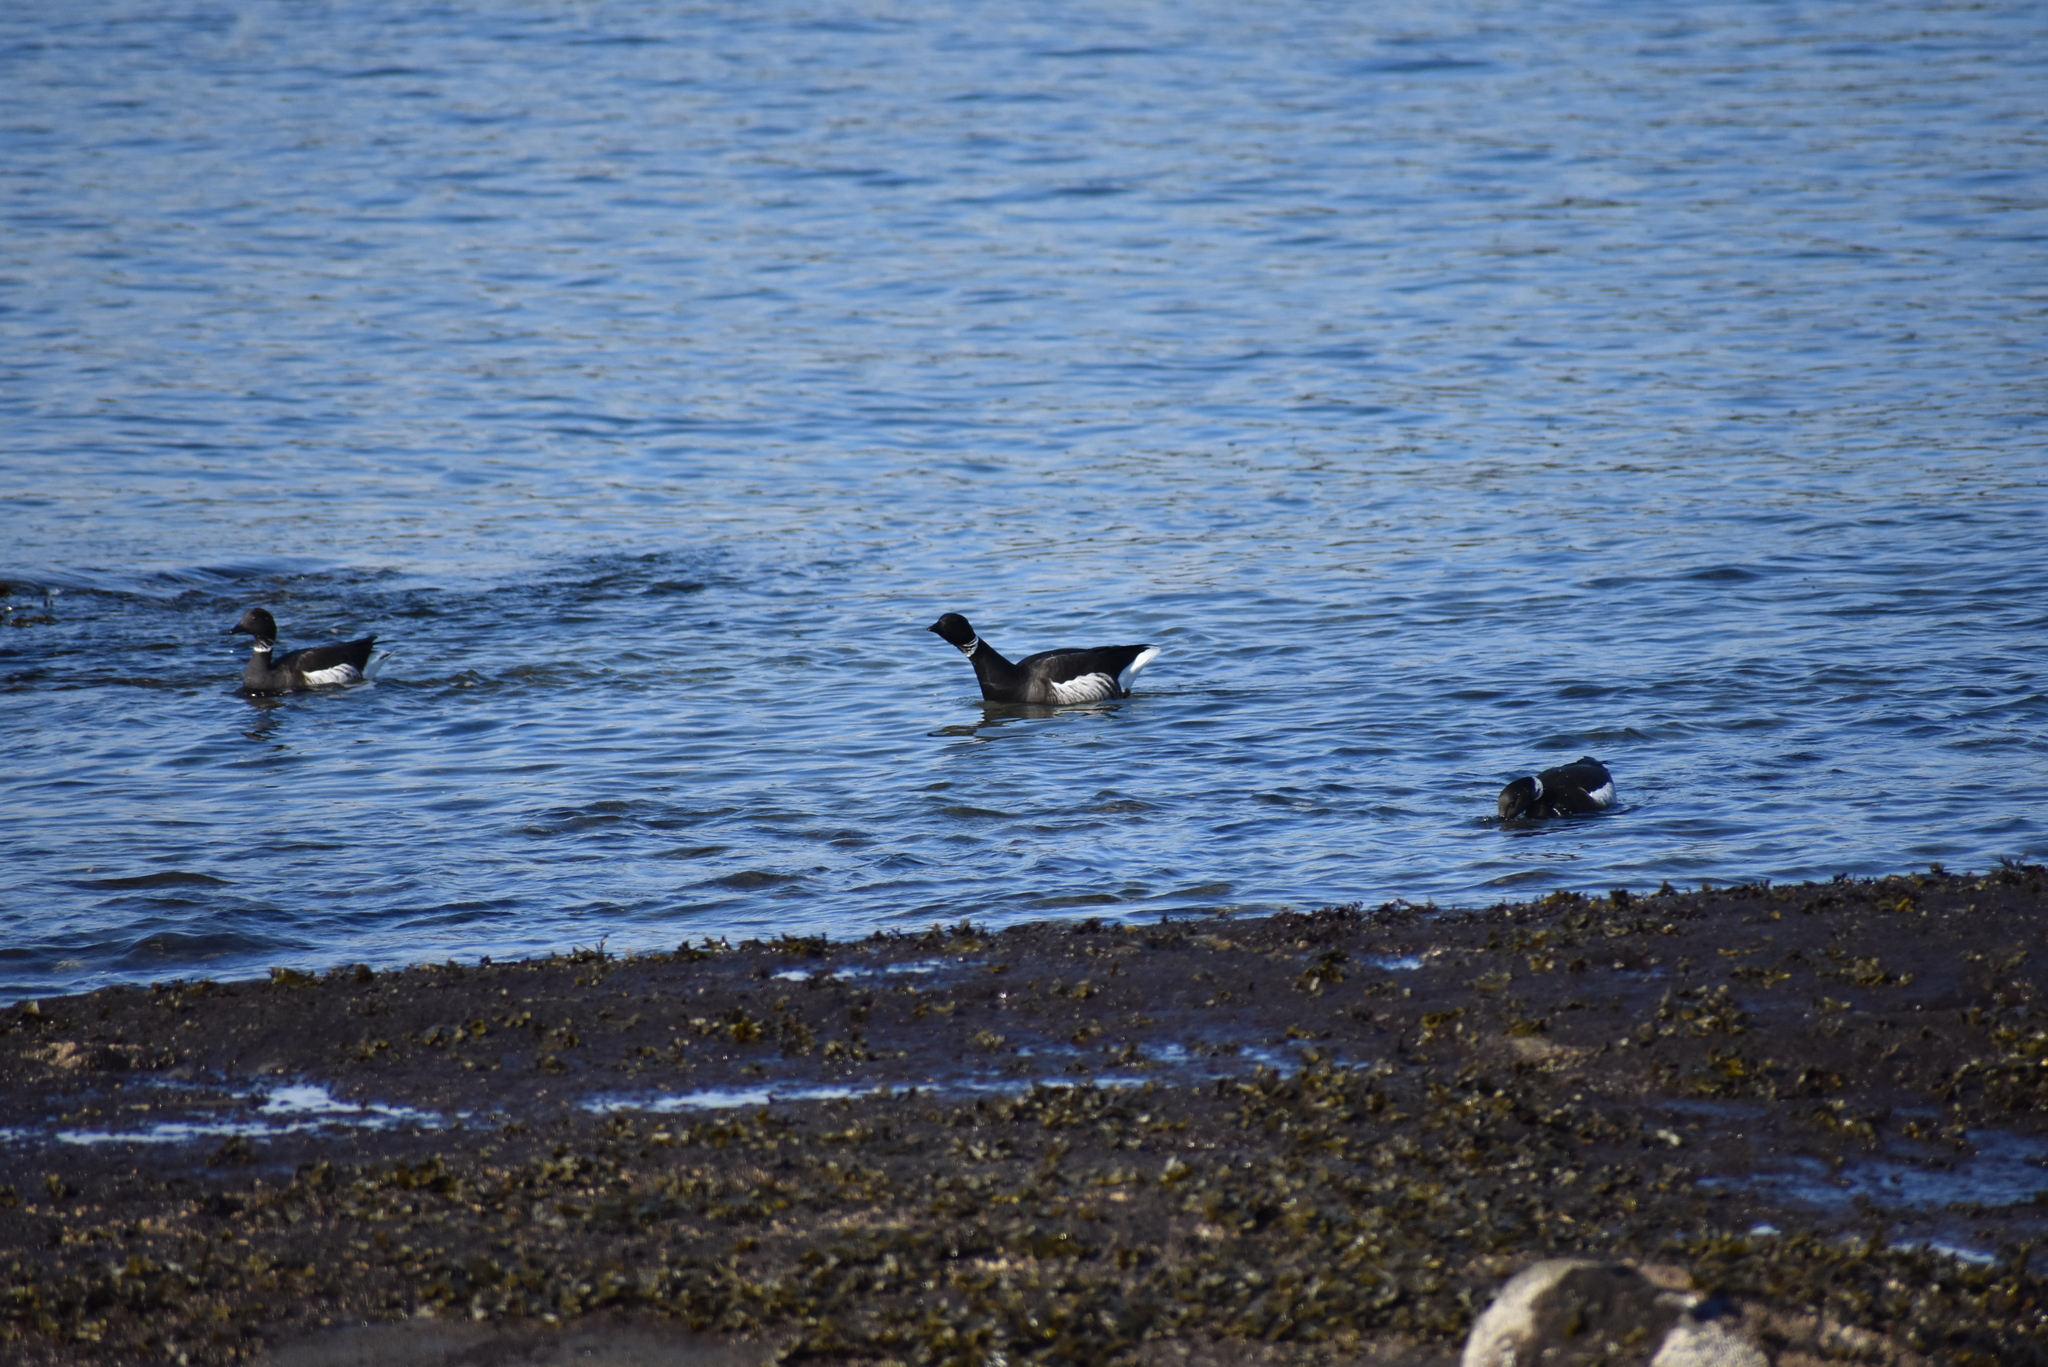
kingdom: Animalia
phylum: Chordata
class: Aves
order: Anseriformes
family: Anatidae
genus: Branta
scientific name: Branta bernicla
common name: Brant goose
